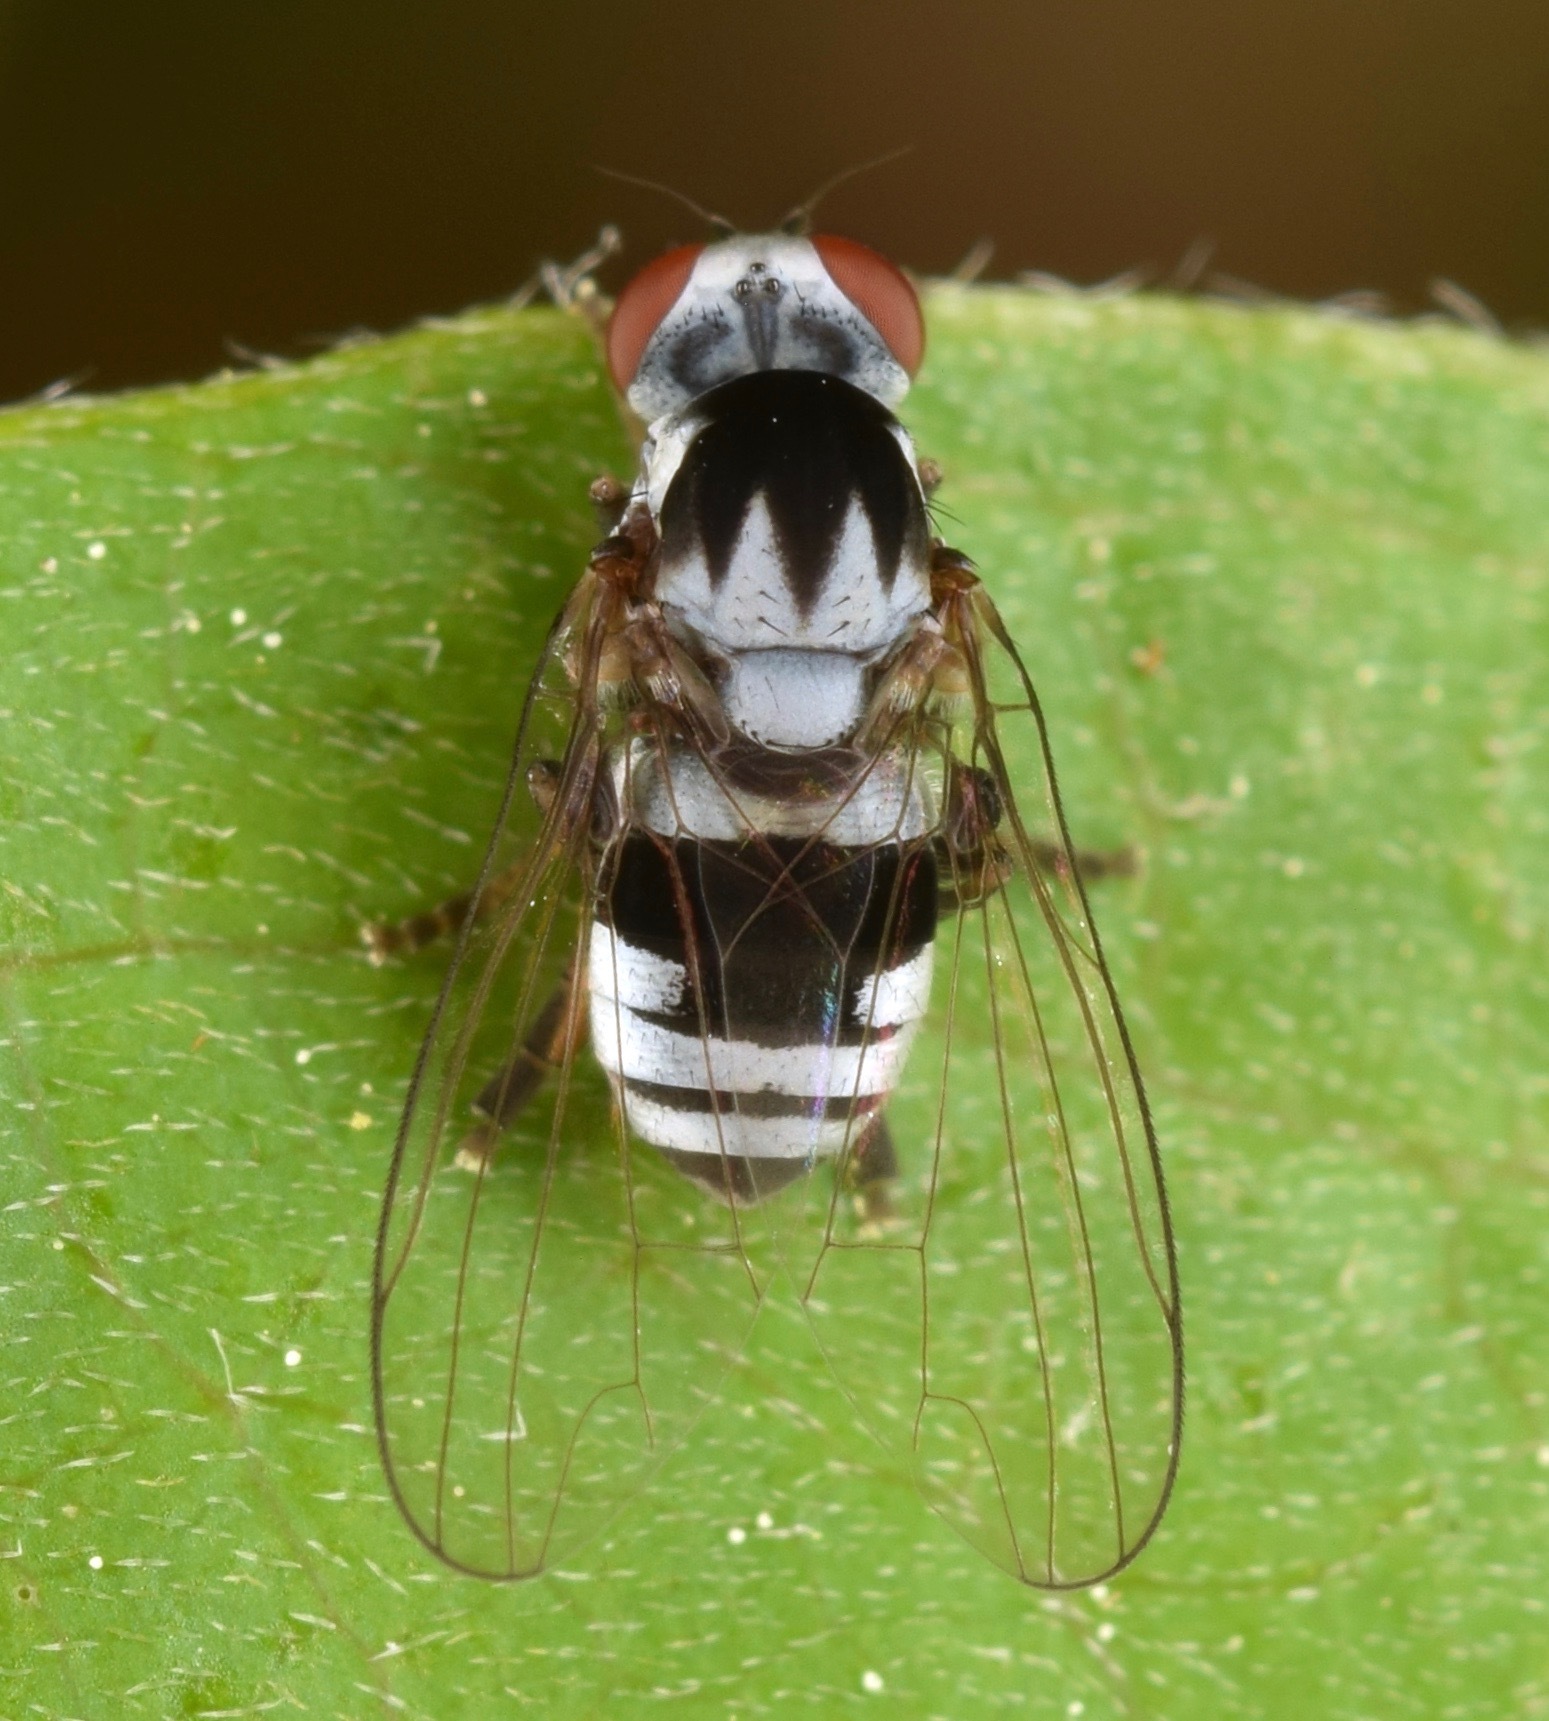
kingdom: Animalia
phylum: Arthropoda
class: Insecta
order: Diptera
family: Platypezidae
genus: Polyporivora
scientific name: Polyporivora polypori
